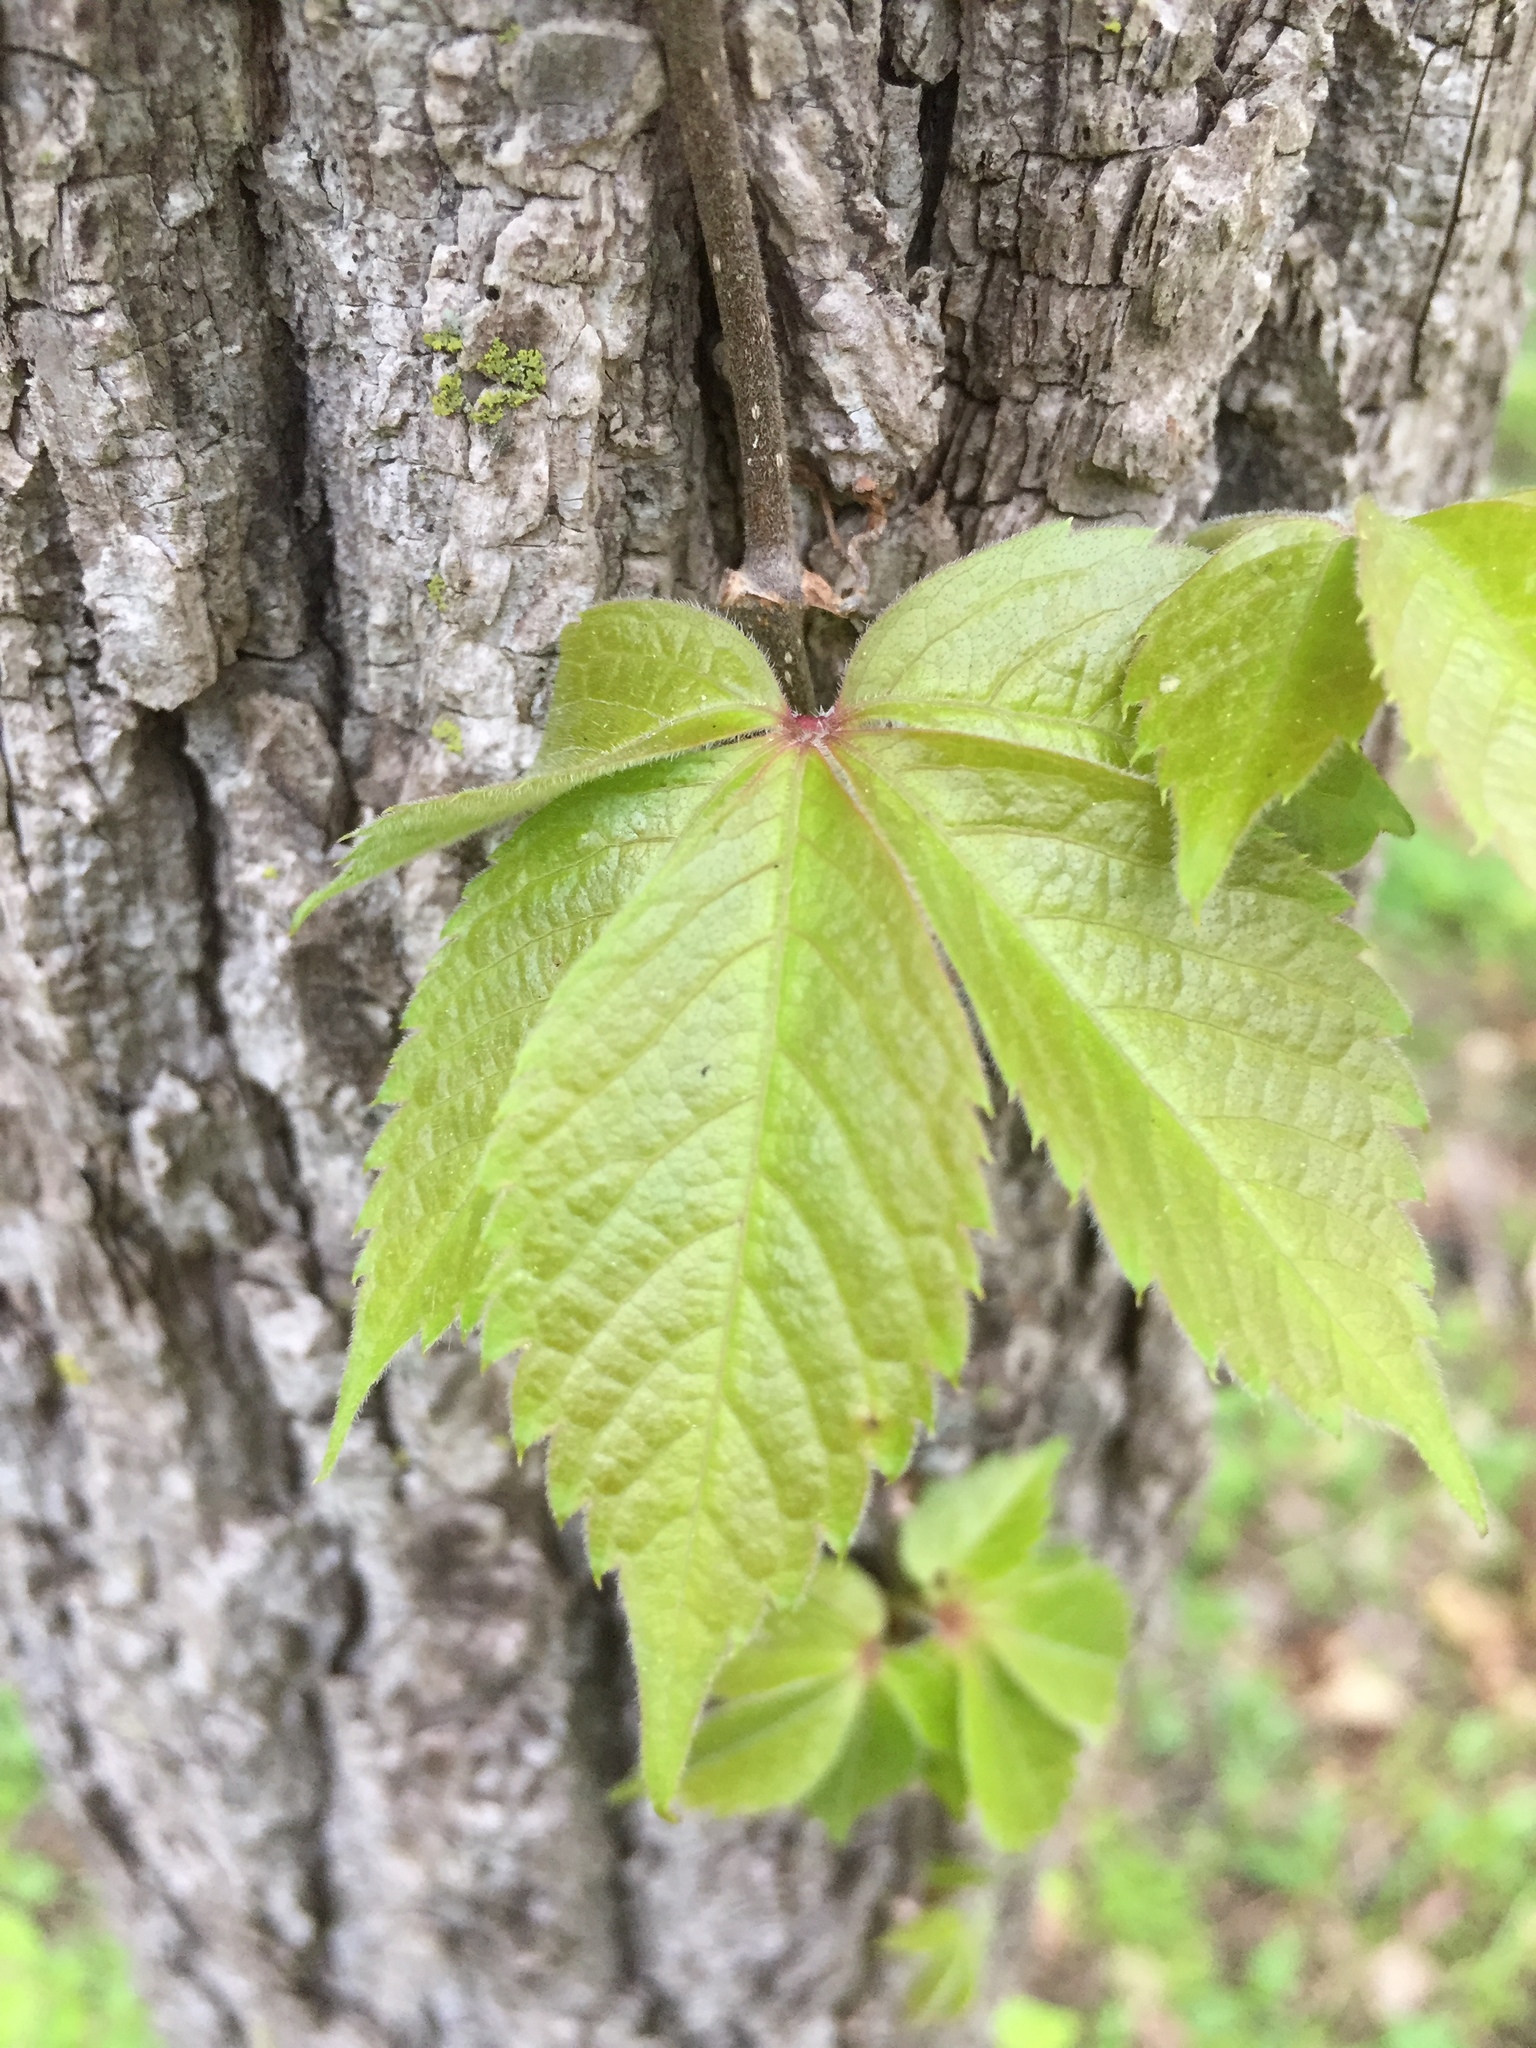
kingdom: Plantae
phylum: Tracheophyta
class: Magnoliopsida
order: Vitales
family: Vitaceae
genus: Parthenocissus
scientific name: Parthenocissus quinquefolia
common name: Virginia-creeper
